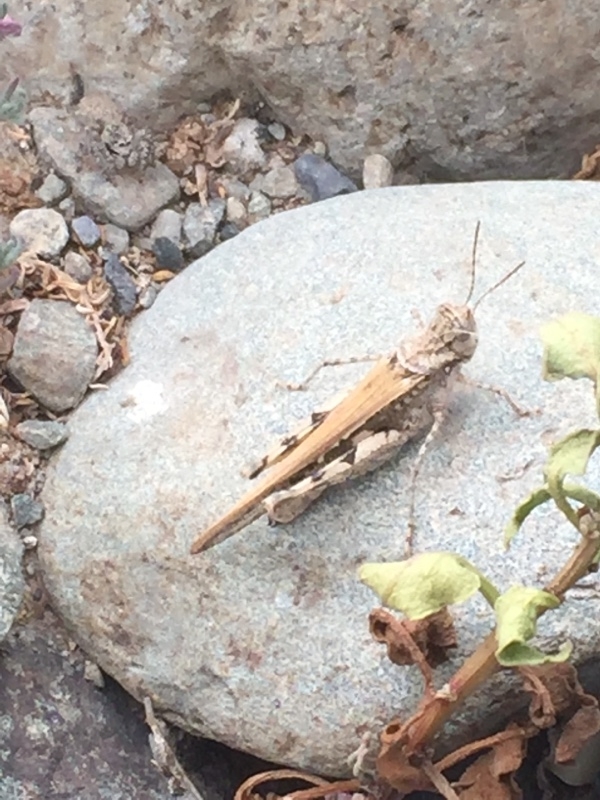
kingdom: Animalia
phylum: Arthropoda
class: Insecta
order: Orthoptera
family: Acrididae
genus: Acrotylus
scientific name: Acrotylus insubricus
